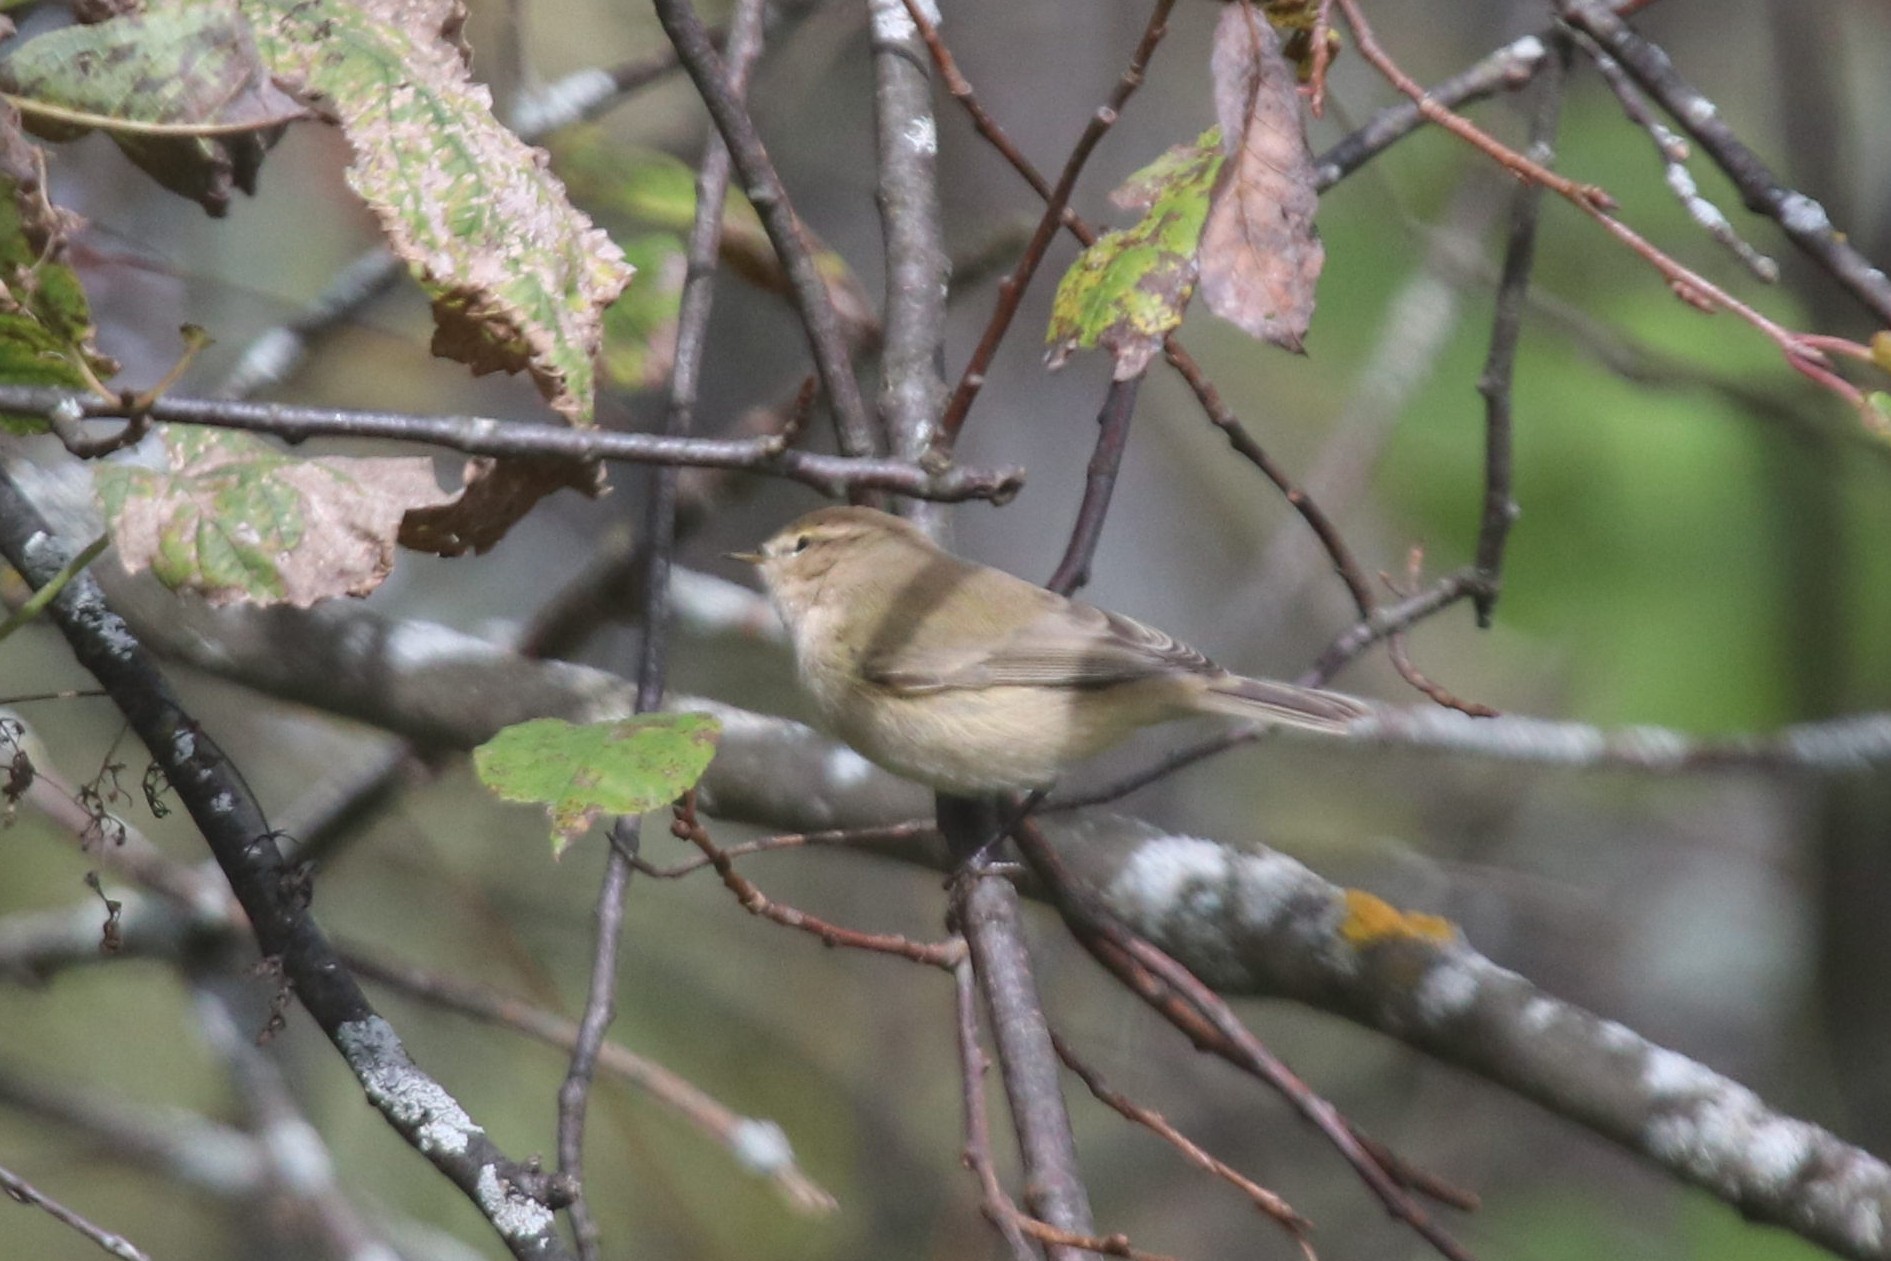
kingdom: Animalia
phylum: Chordata
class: Aves
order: Passeriformes
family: Phylloscopidae
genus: Phylloscopus
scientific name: Phylloscopus collybita
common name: Common chiffchaff
